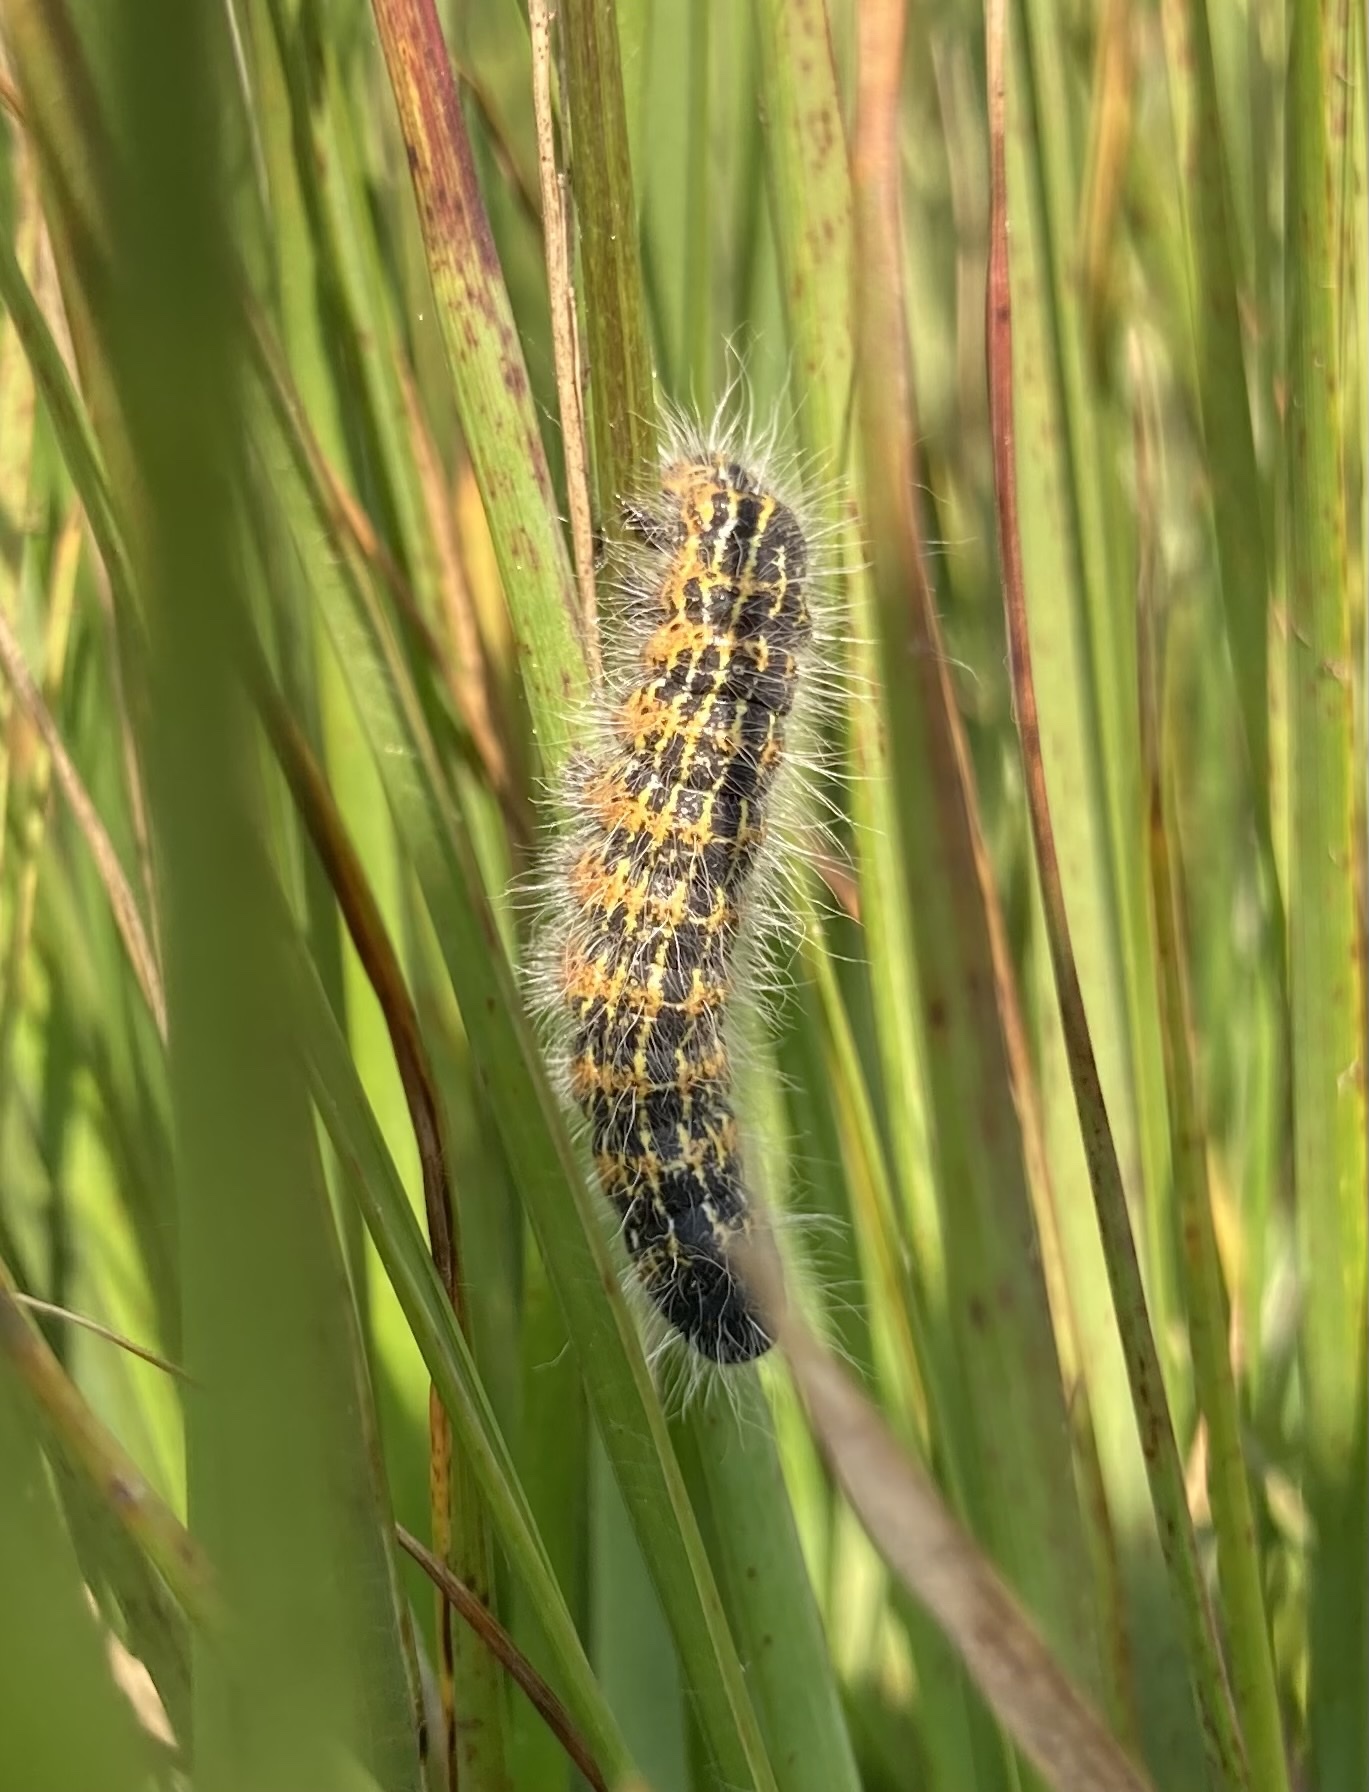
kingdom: Animalia
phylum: Arthropoda
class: Insecta
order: Lepidoptera
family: Notodontidae
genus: Phalera
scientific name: Phalera bucephala
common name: Buff-tip
